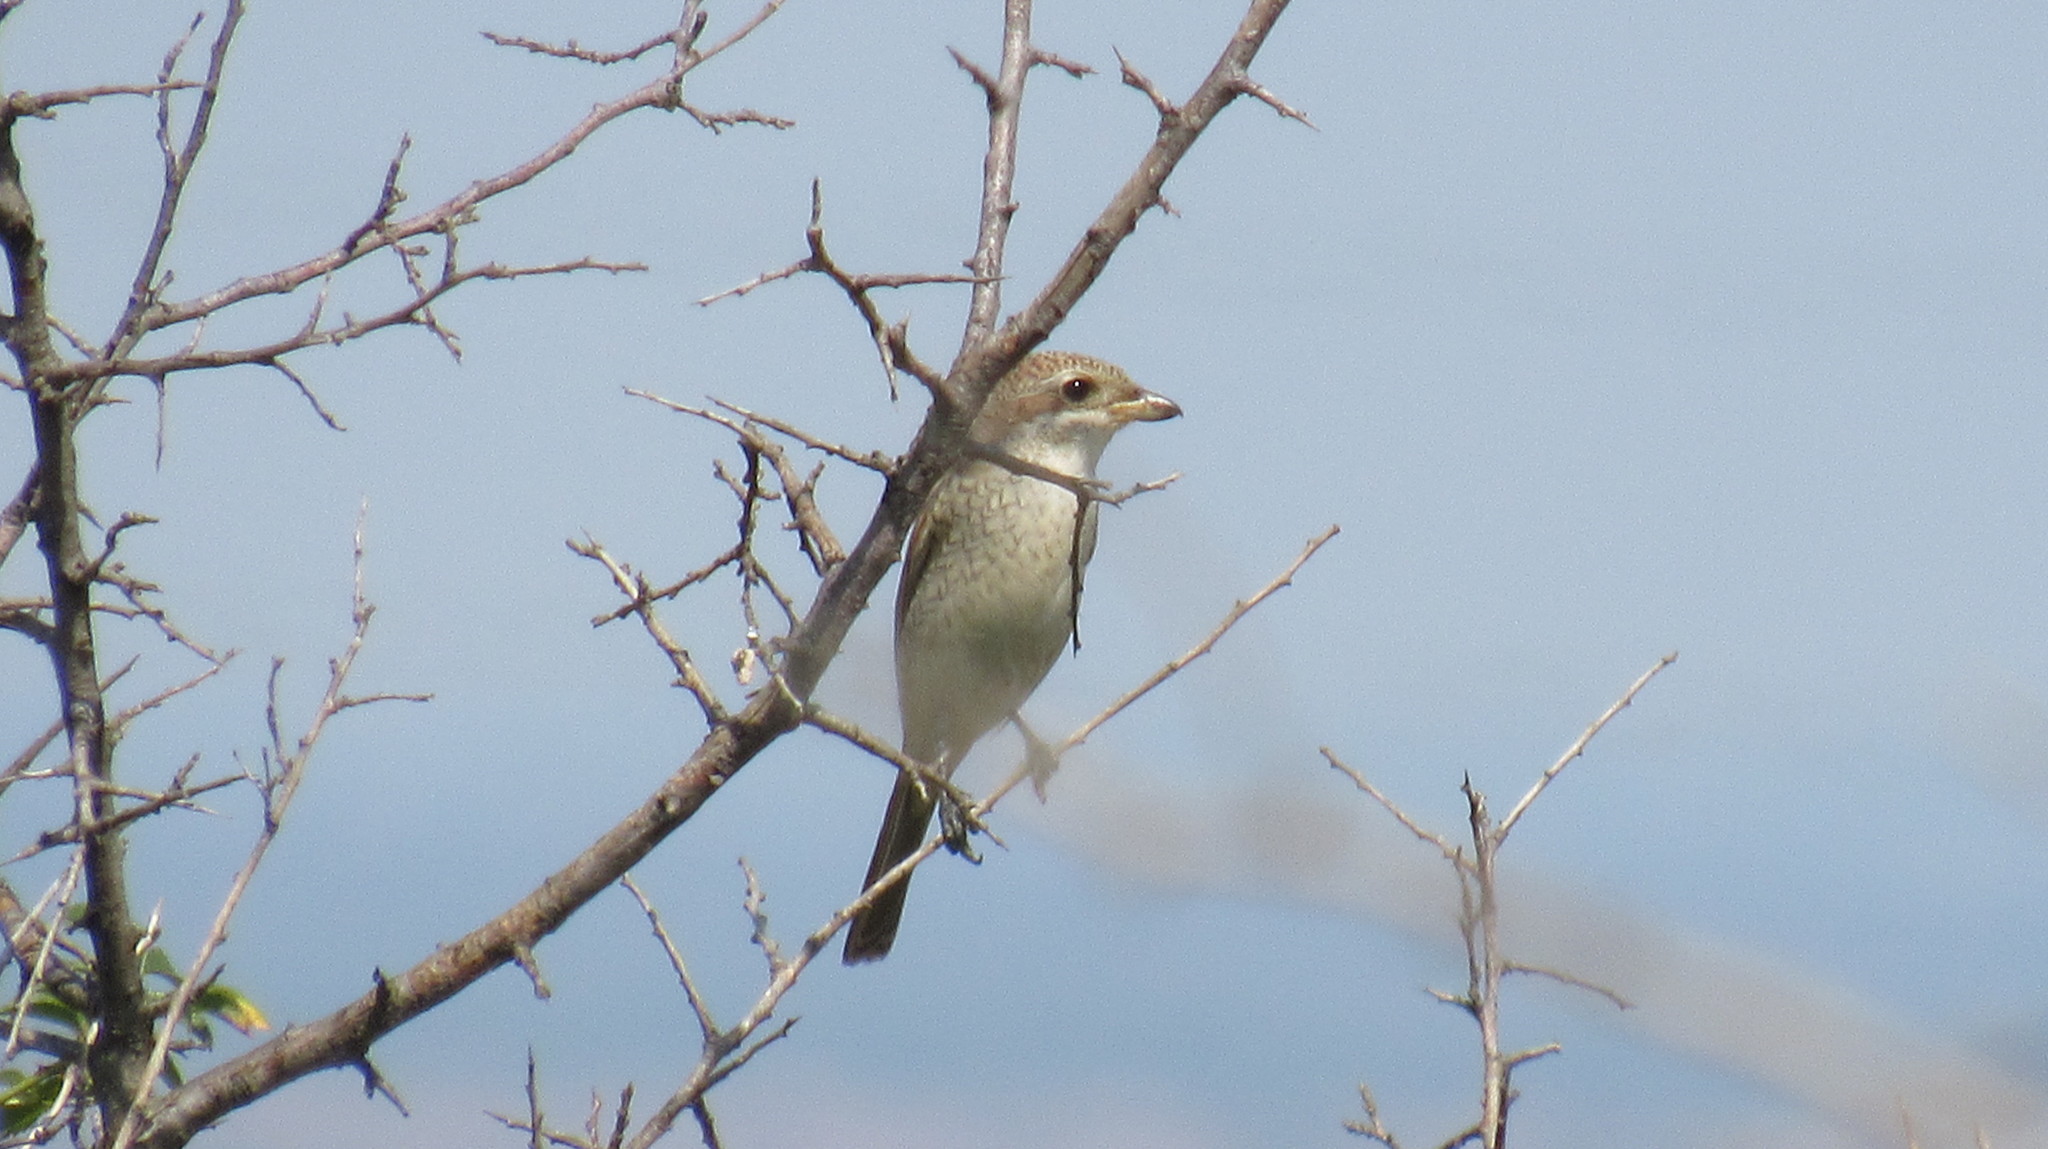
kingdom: Animalia
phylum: Chordata
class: Aves
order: Passeriformes
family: Laniidae
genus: Lanius
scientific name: Lanius collurio
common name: Red-backed shrike
